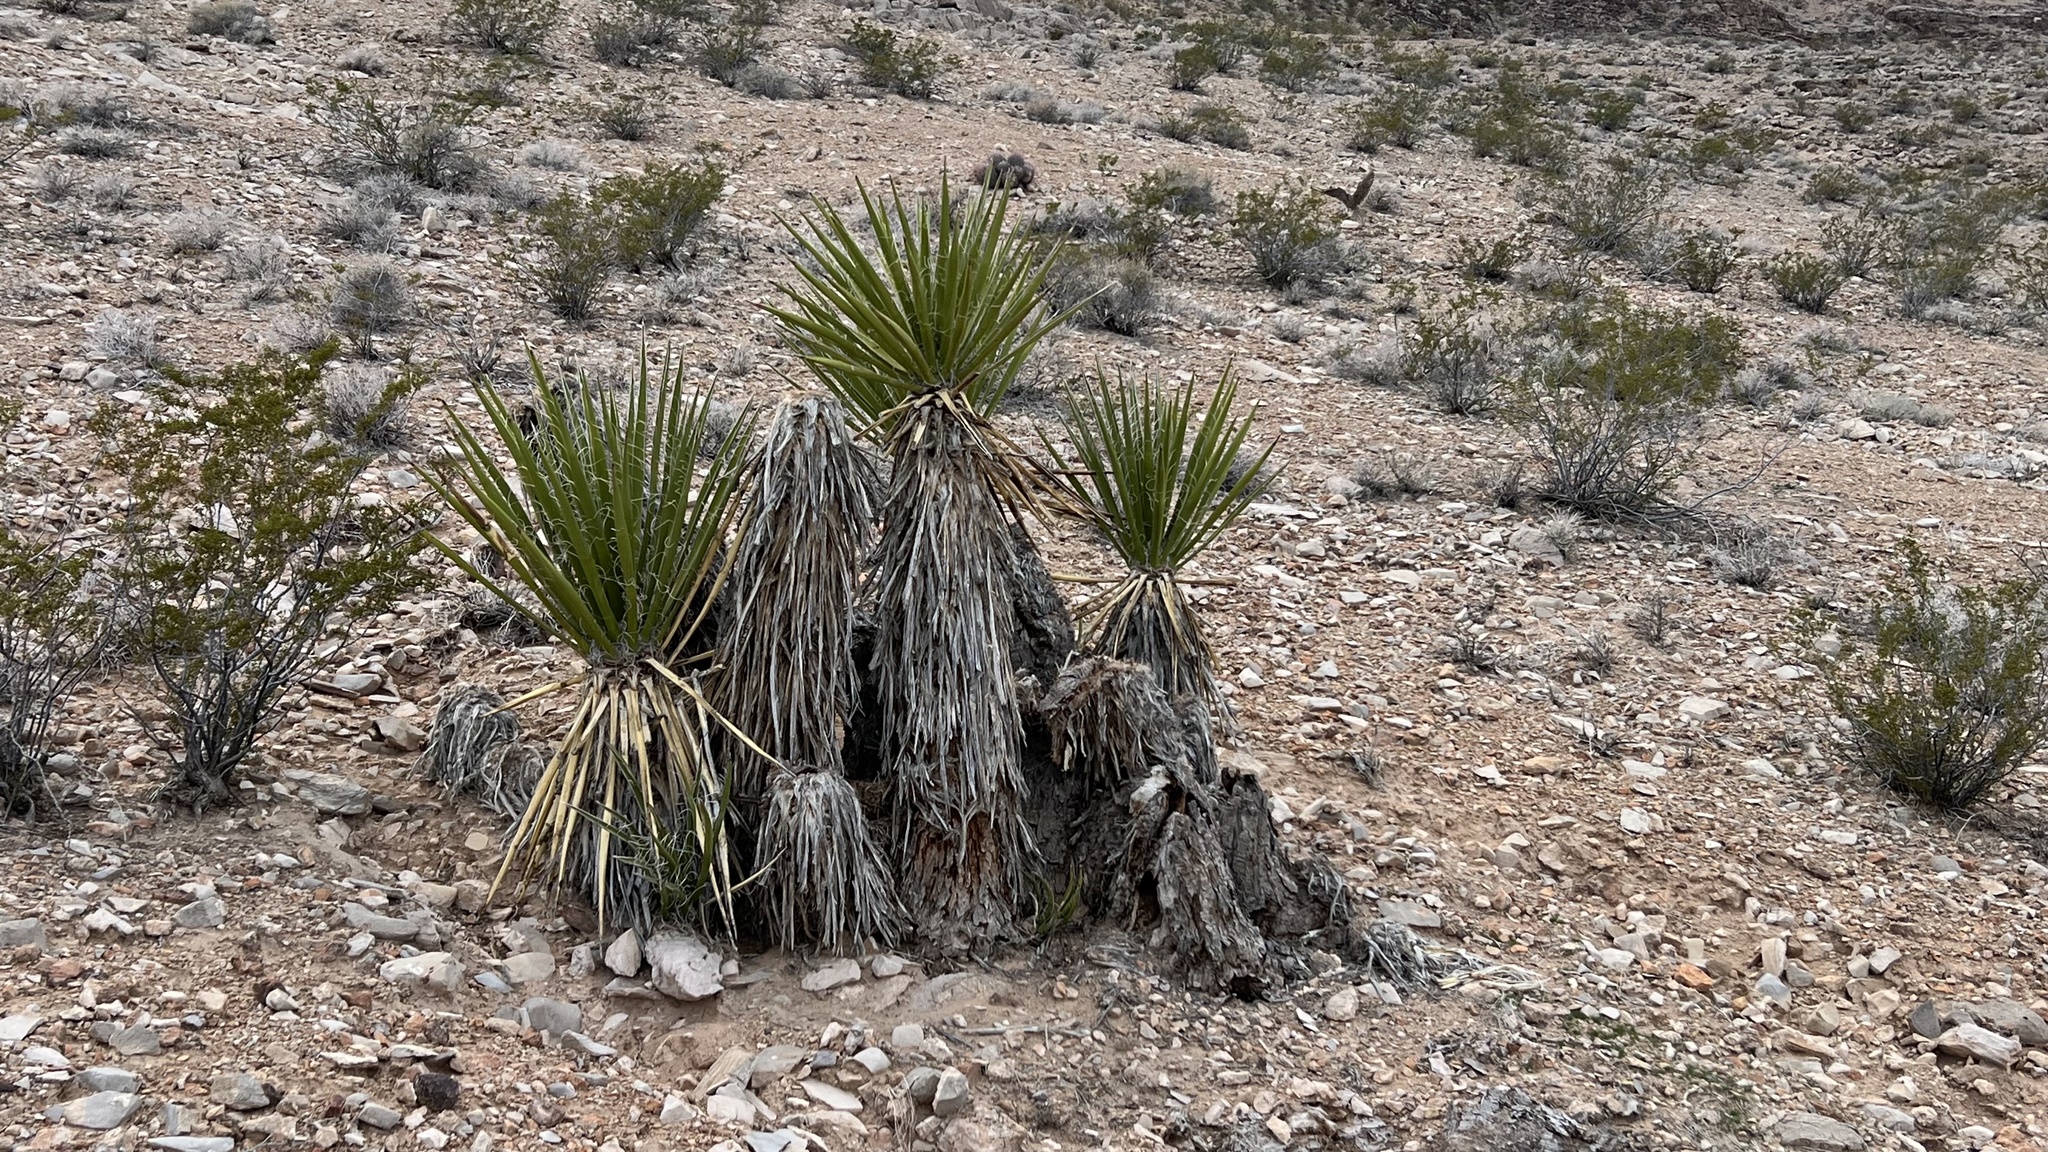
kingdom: Plantae
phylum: Tracheophyta
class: Liliopsida
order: Asparagales
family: Asparagaceae
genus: Yucca
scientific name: Yucca schidigera
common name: Mojave yucca
